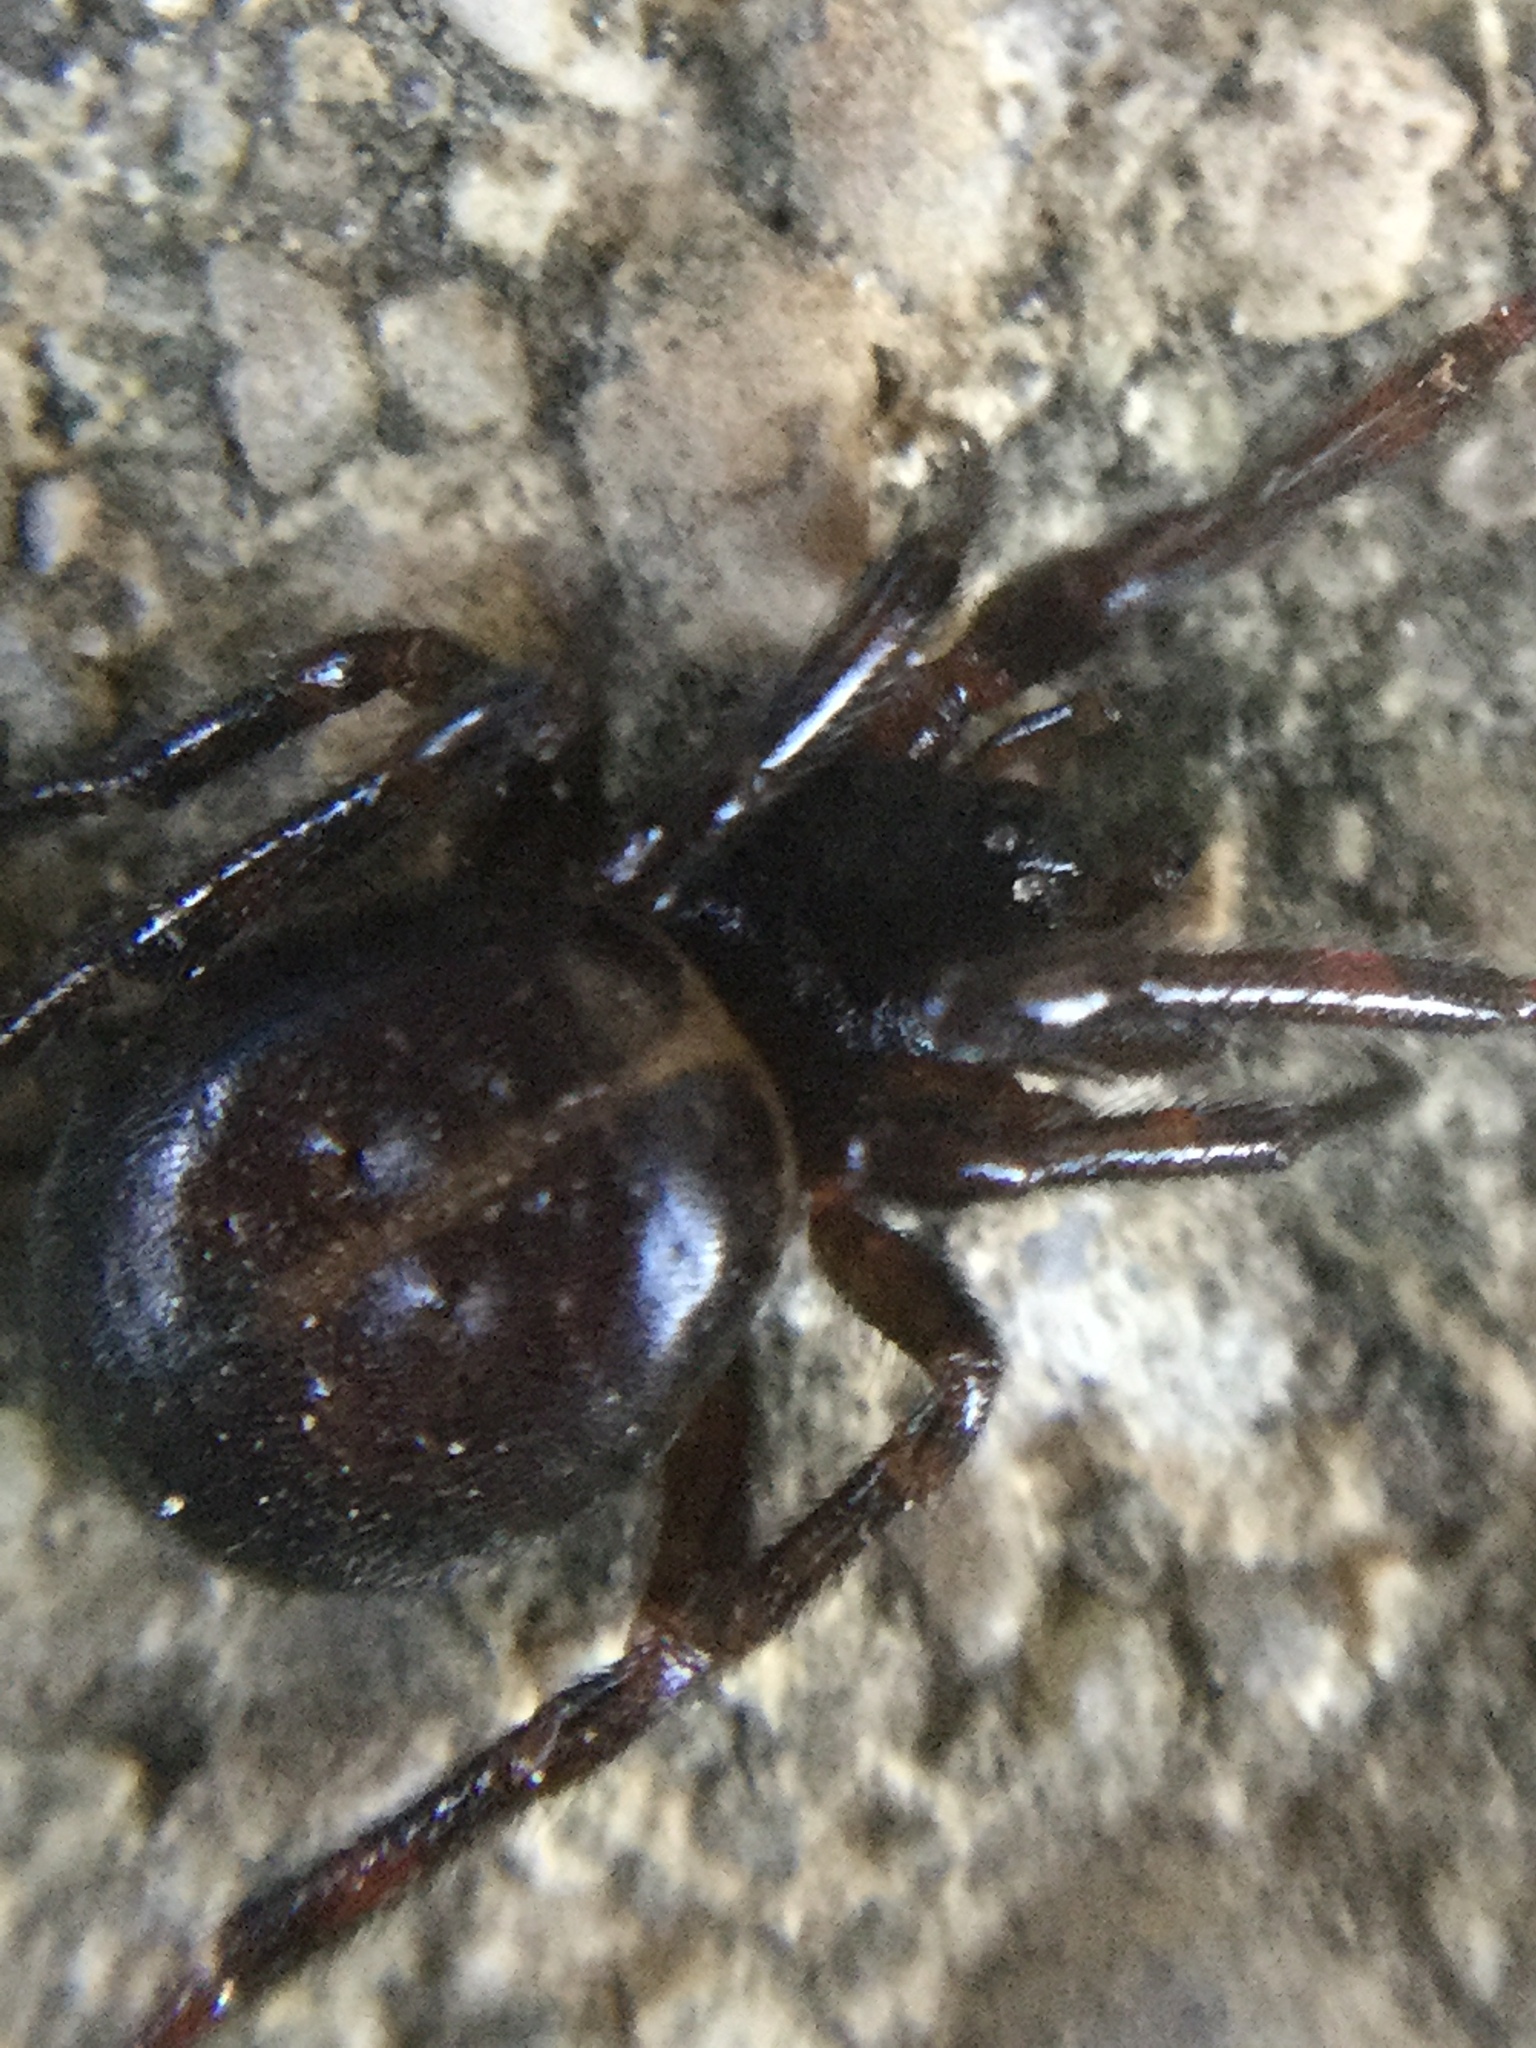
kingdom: Animalia
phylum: Arthropoda
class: Arachnida
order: Araneae
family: Theridiidae
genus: Steatoda
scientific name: Steatoda borealis
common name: Boreal combfoot
